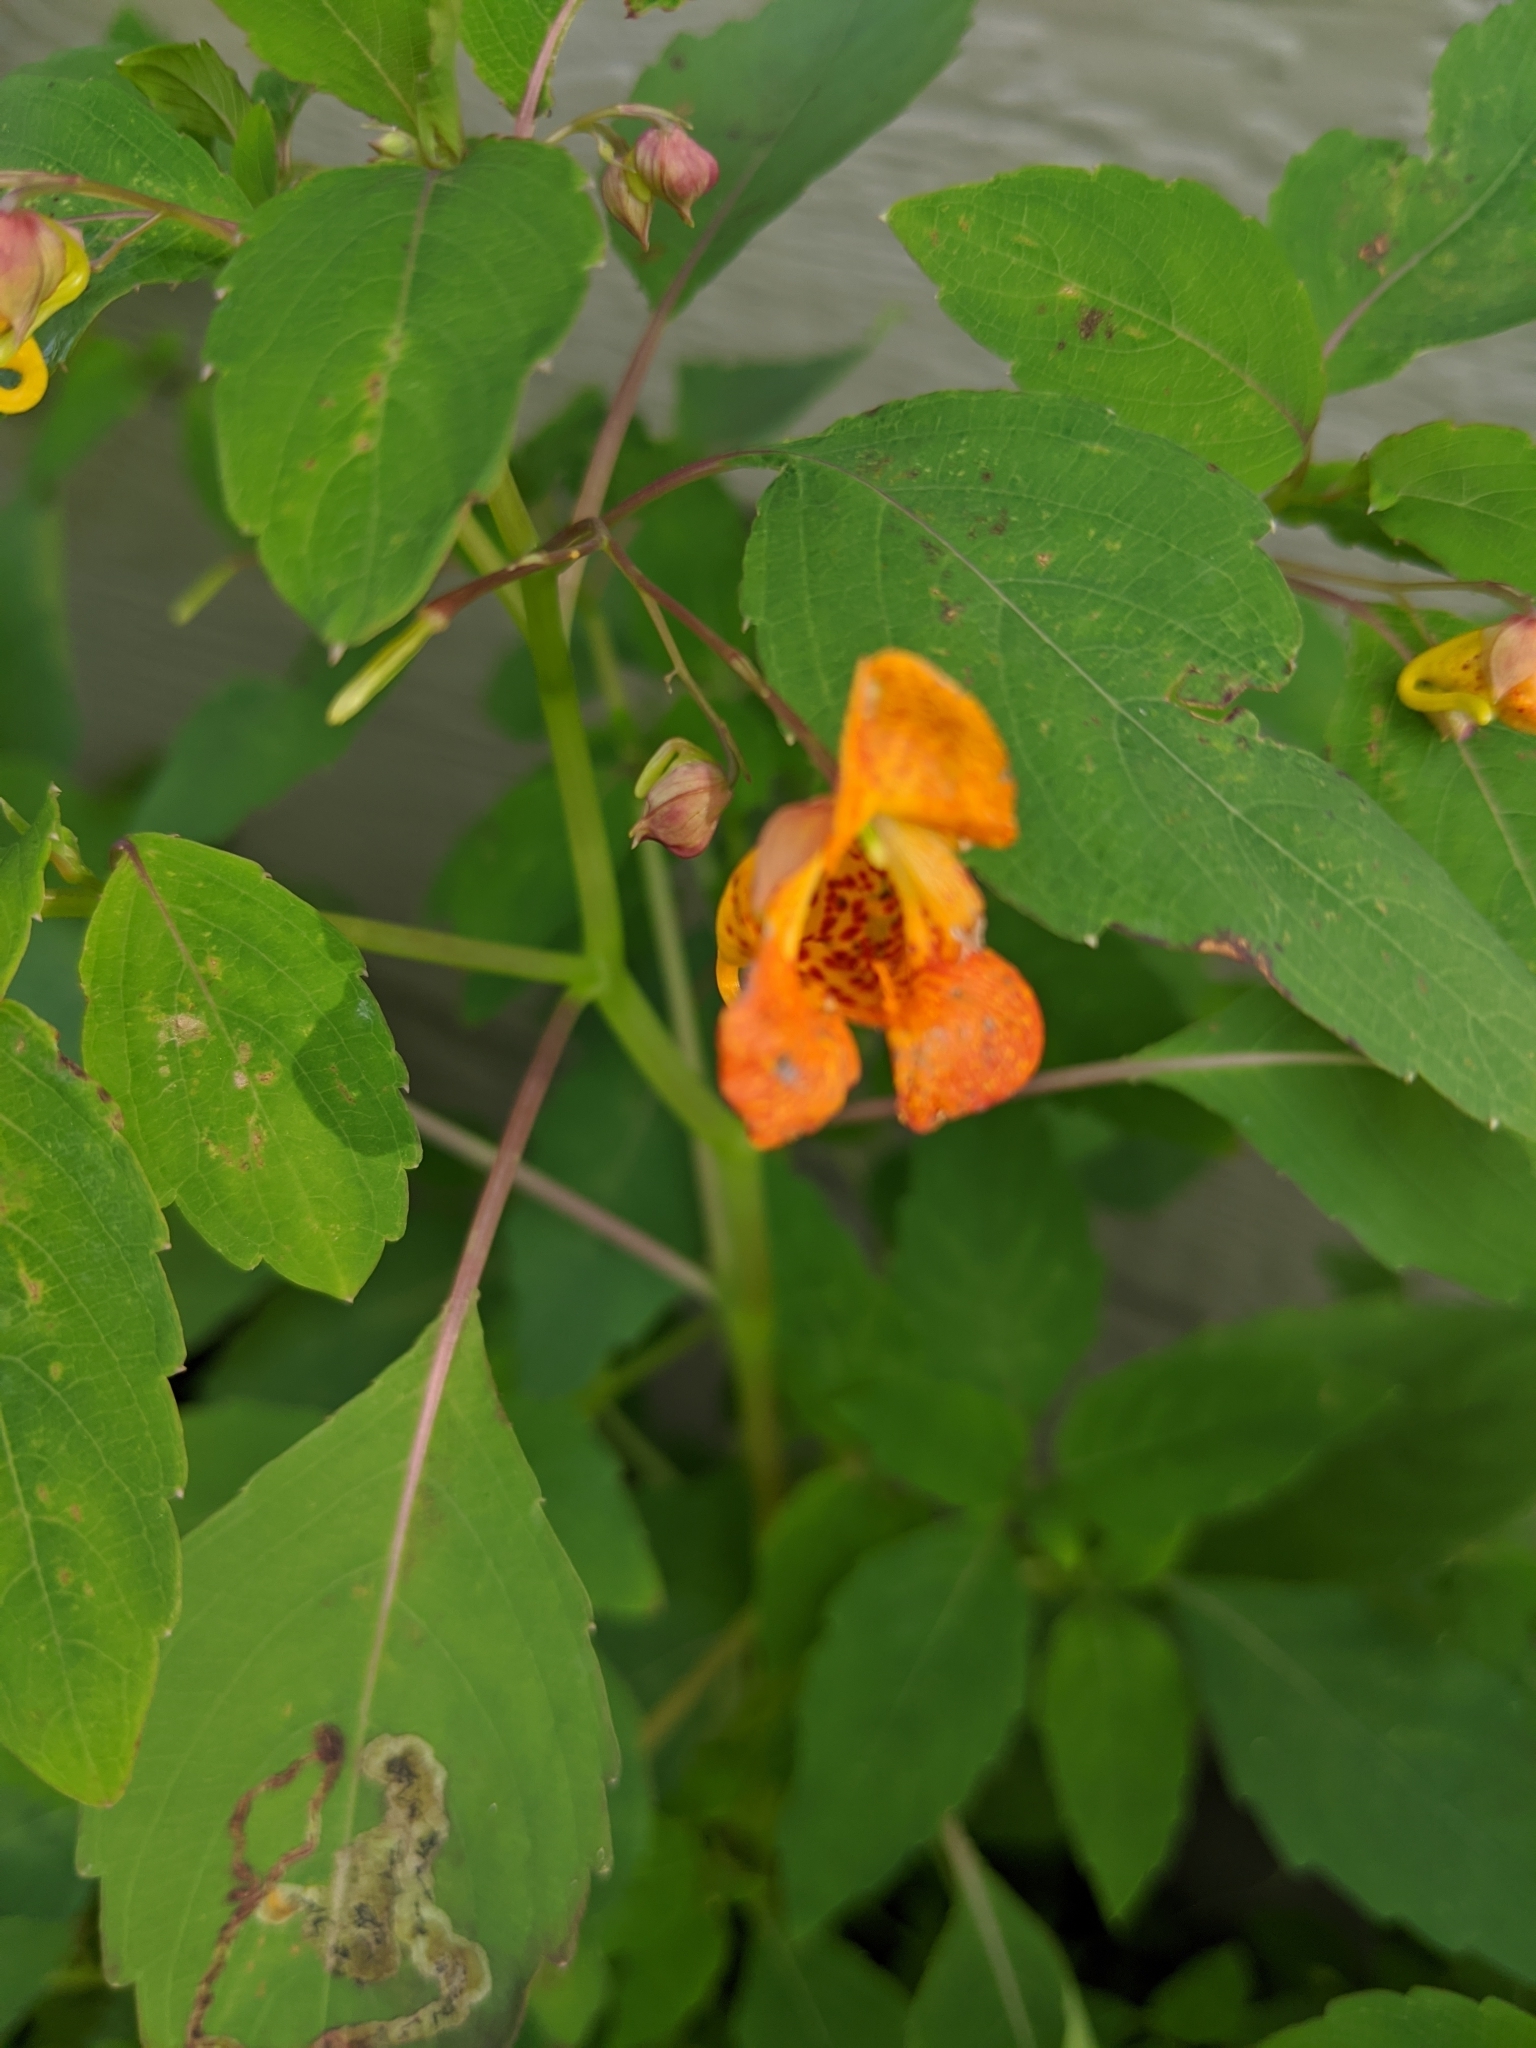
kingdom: Plantae
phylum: Tracheophyta
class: Magnoliopsida
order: Ericales
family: Balsaminaceae
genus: Impatiens
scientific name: Impatiens capensis
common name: Orange balsam
